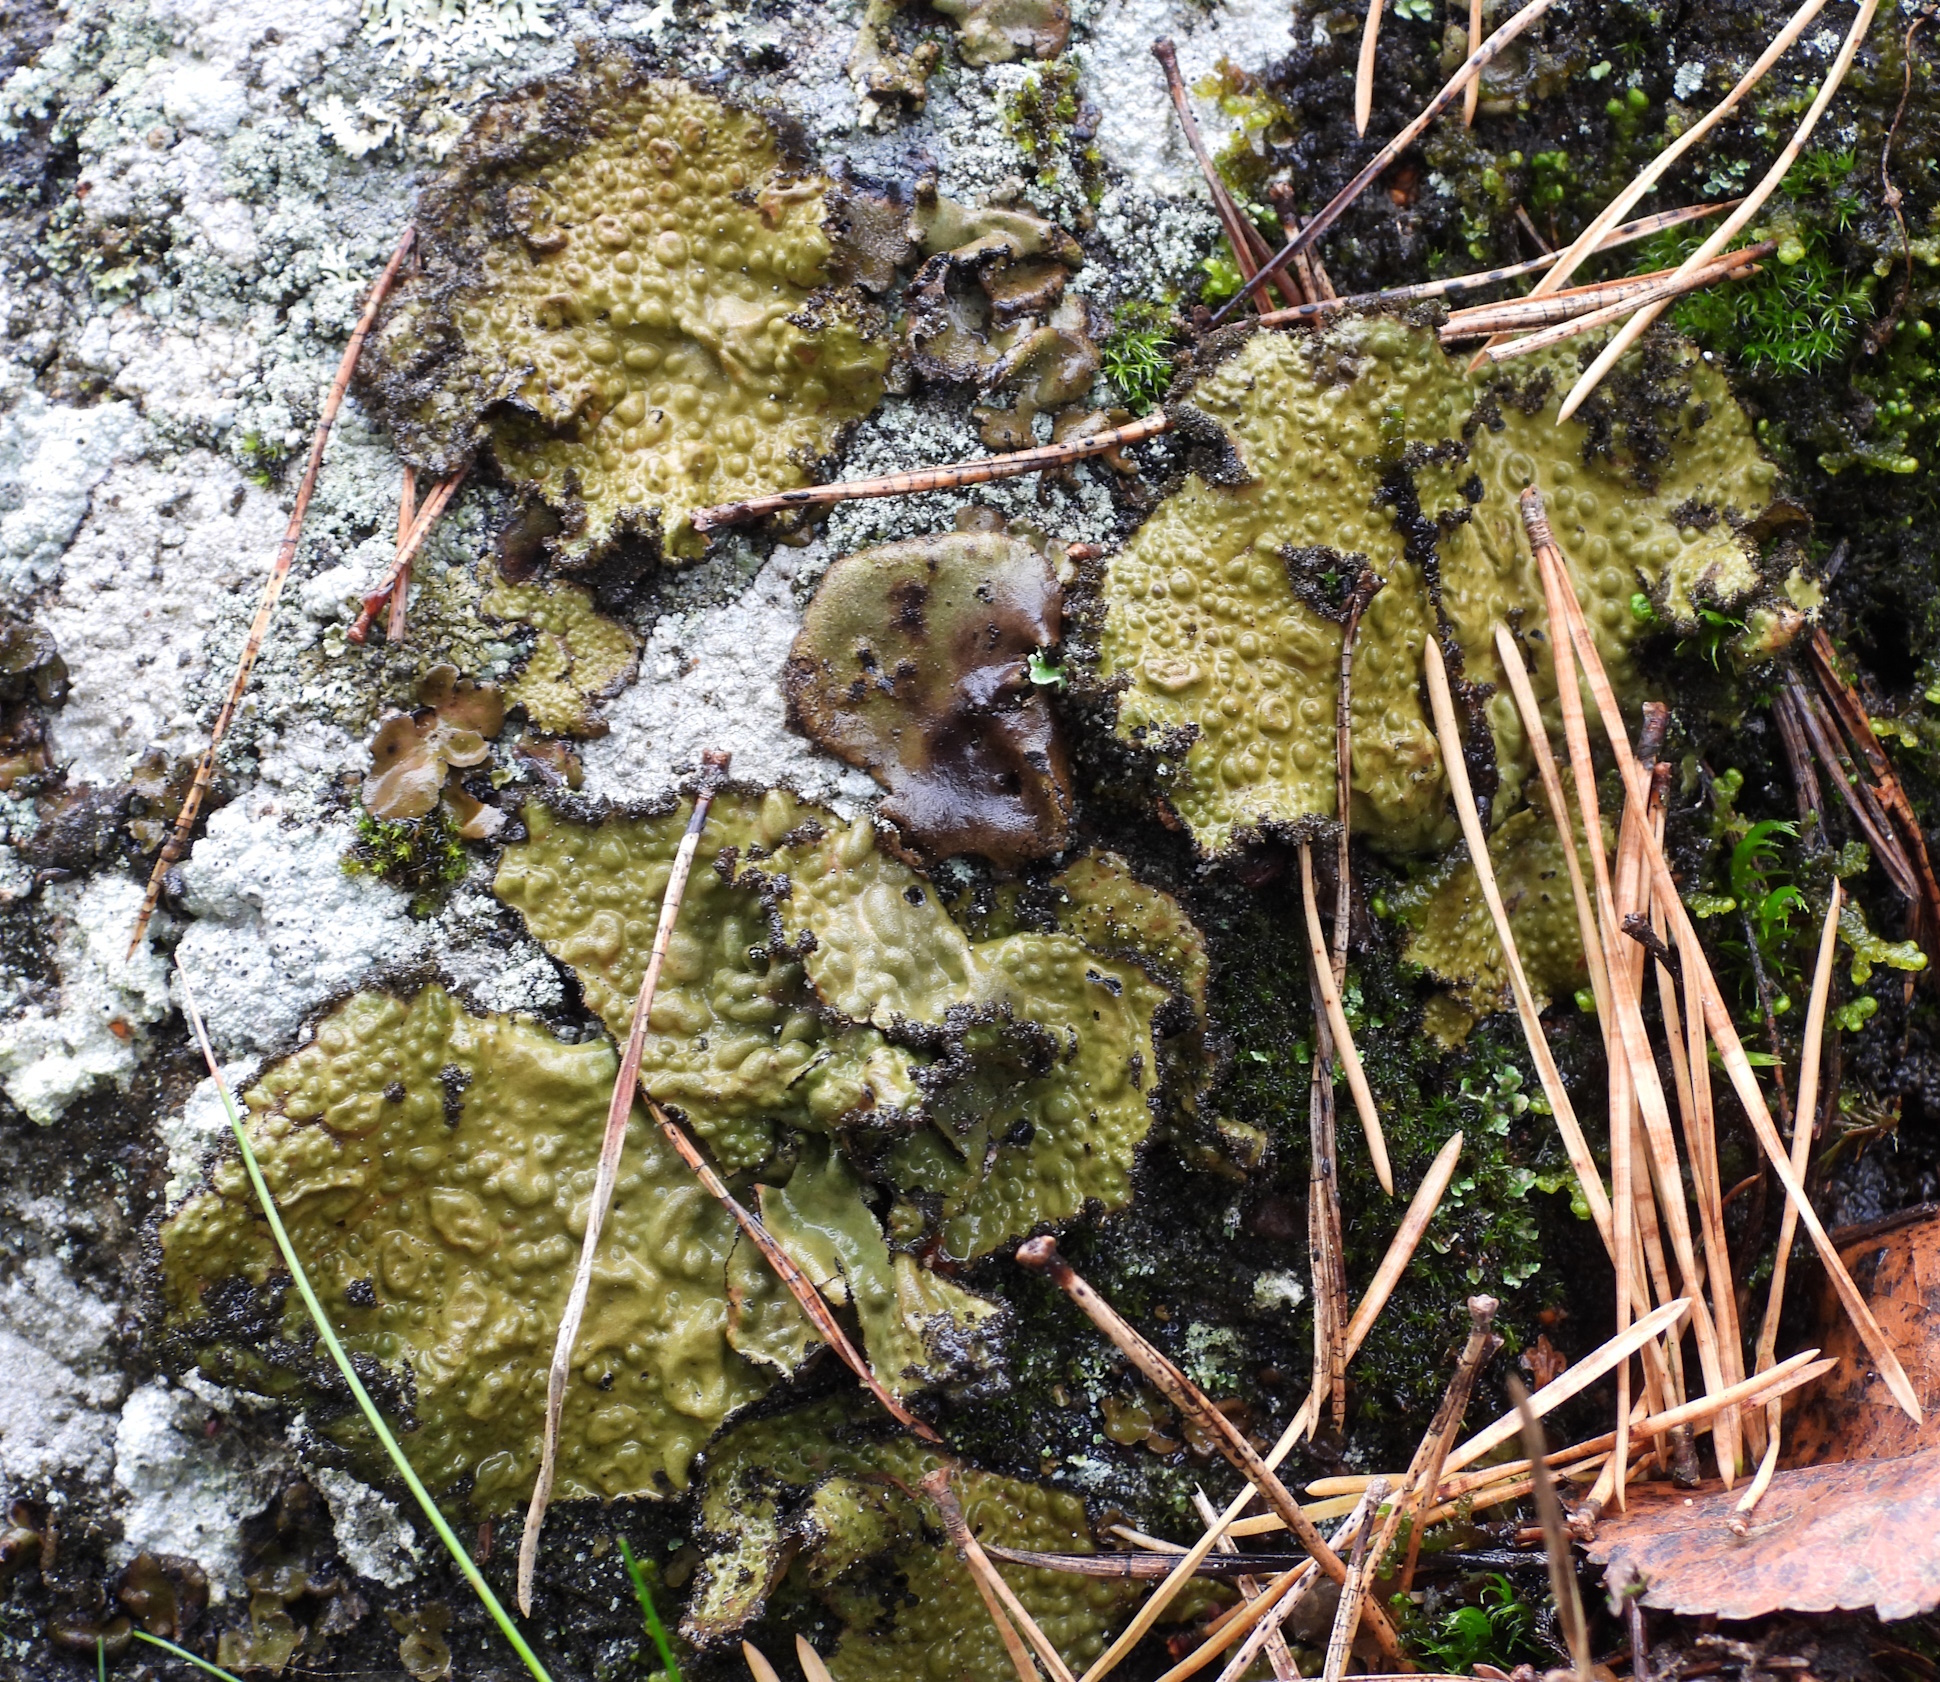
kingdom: Fungi
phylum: Ascomycota
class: Lecanoromycetes
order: Umbilicariales
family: Umbilicariaceae
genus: Lasallia
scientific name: Lasallia pustulata
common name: Blistered toadskin lichen
